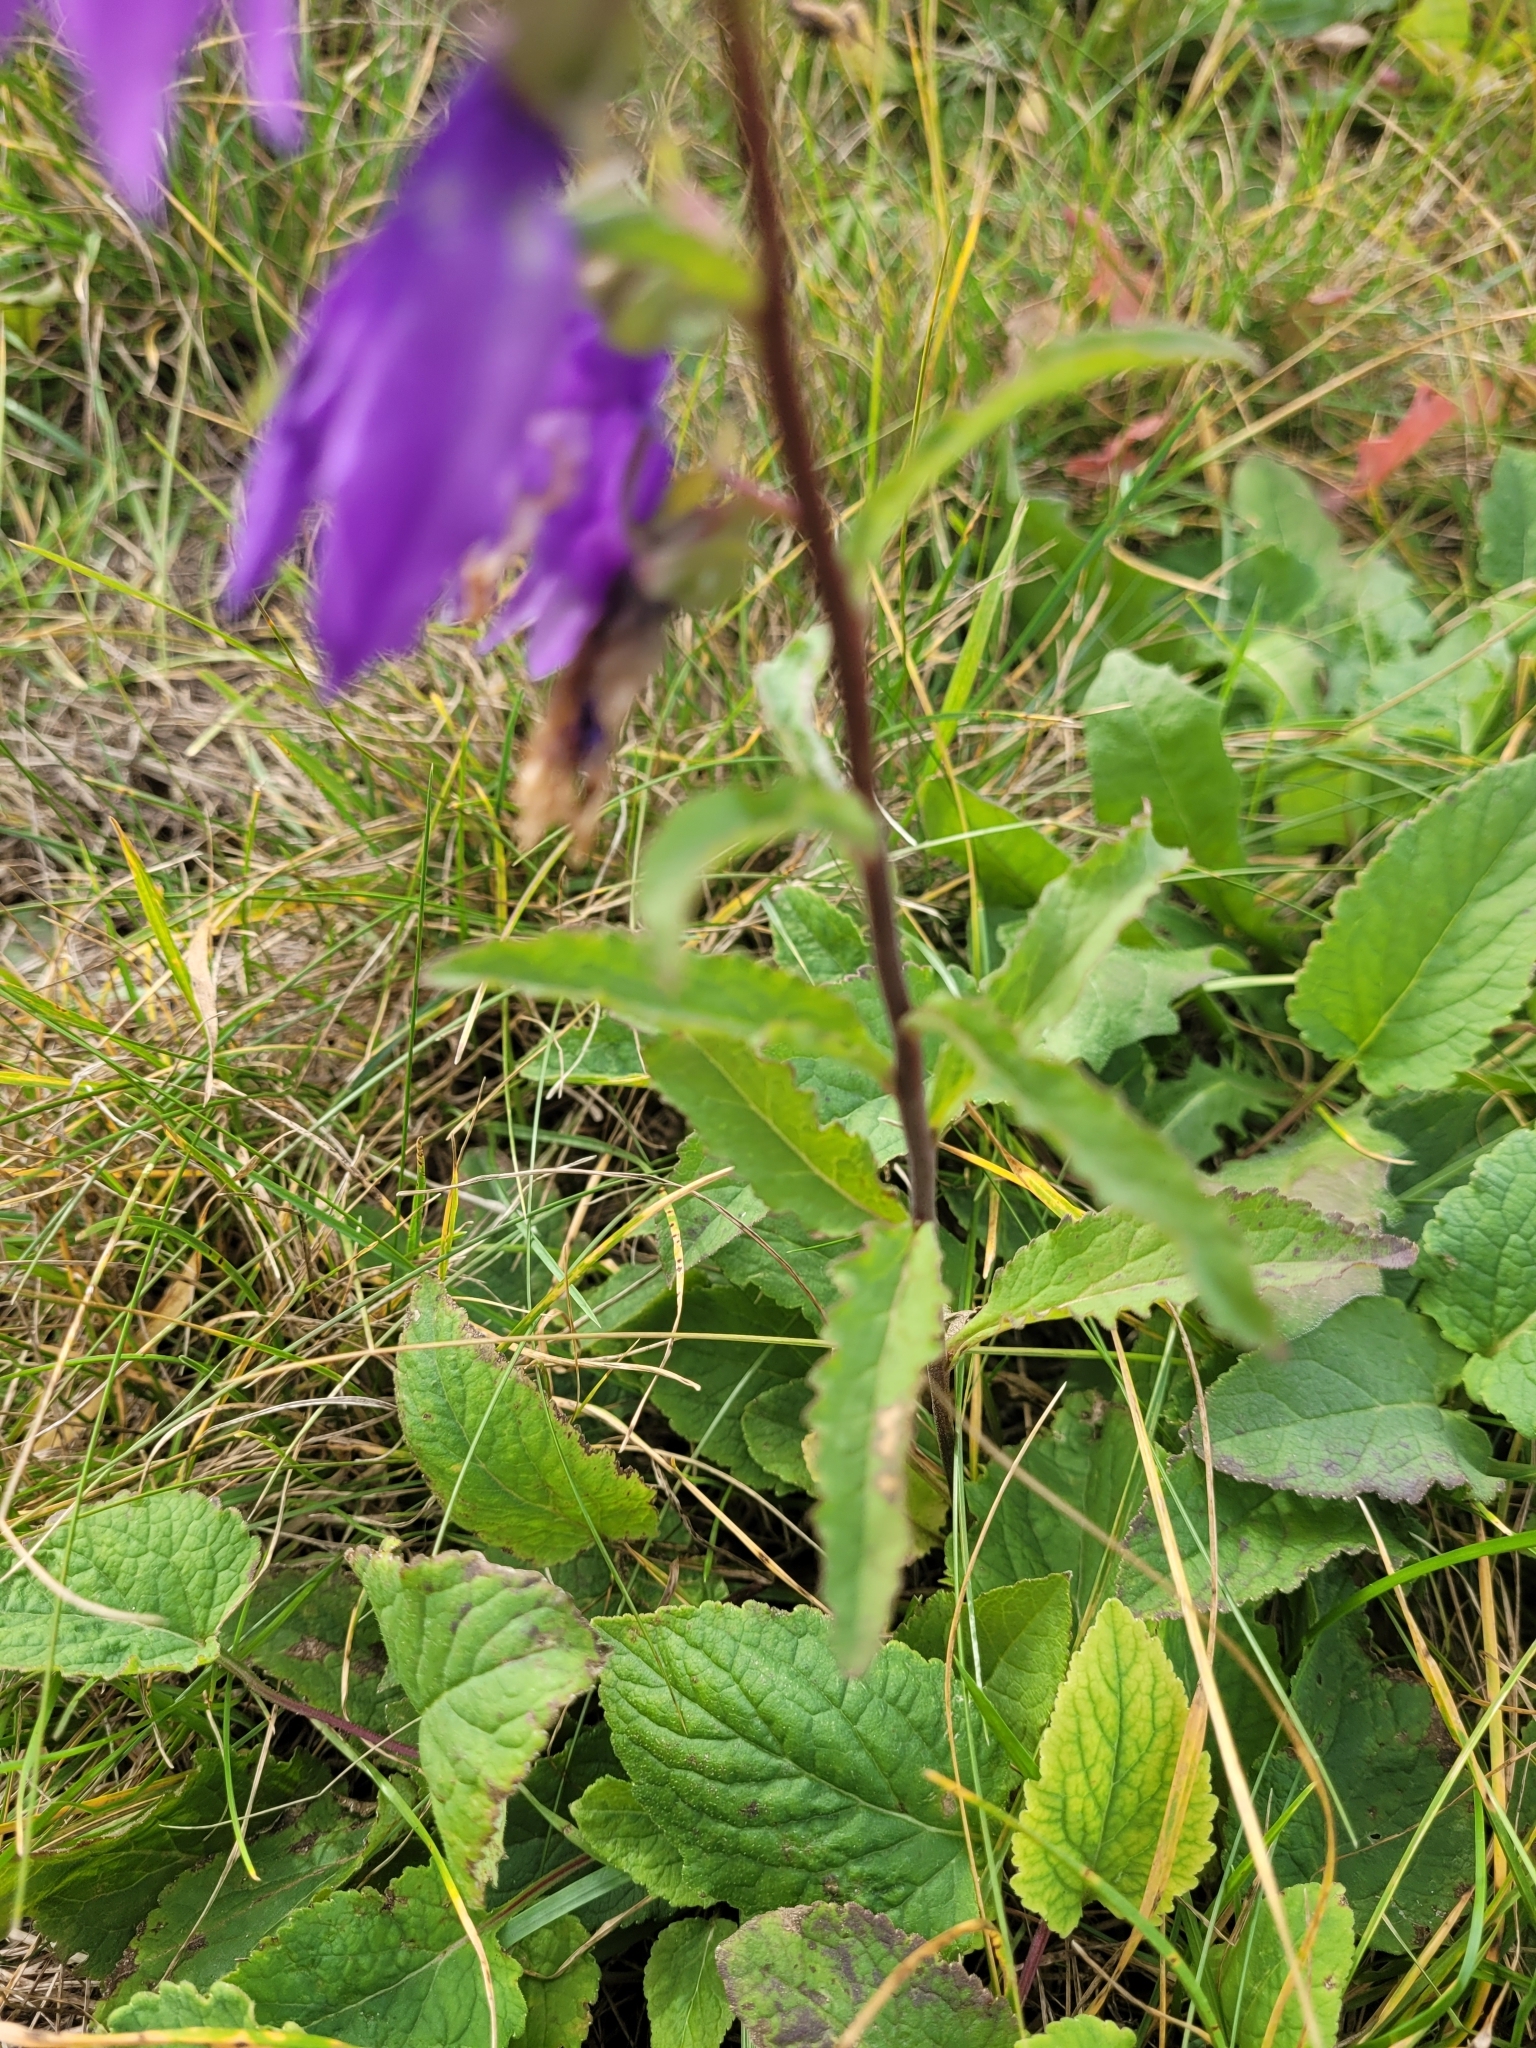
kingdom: Plantae
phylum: Tracheophyta
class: Magnoliopsida
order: Asterales
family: Campanulaceae
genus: Campanula
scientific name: Campanula rapunculoides
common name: Creeping bellflower
